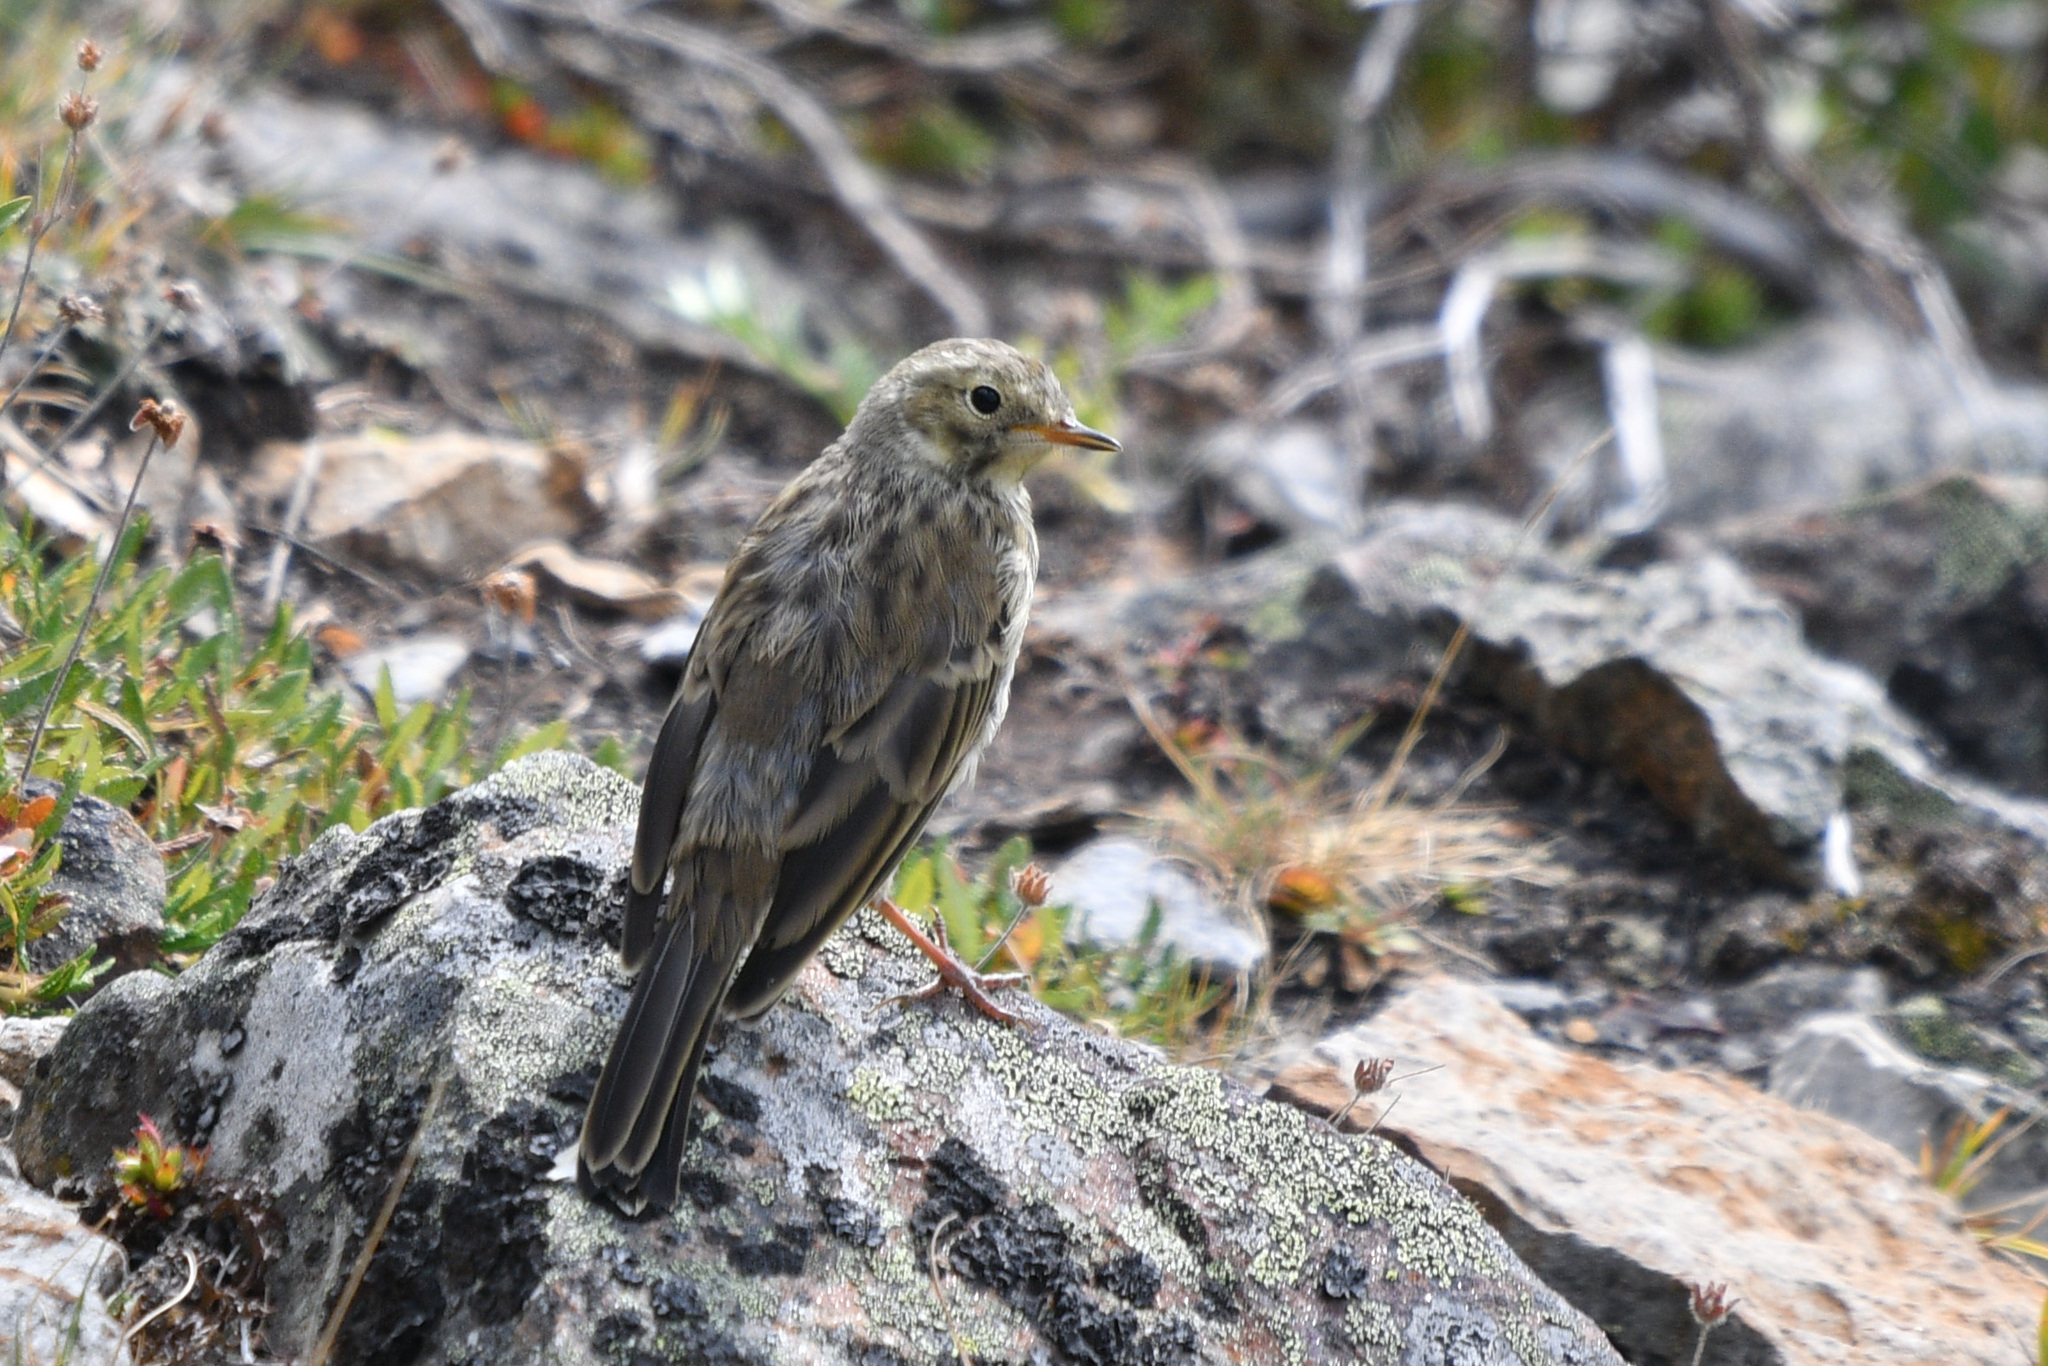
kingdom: Animalia
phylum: Chordata
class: Aves
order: Passeriformes
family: Motacillidae
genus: Anthus
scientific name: Anthus rubescens
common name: Buff-bellied pipit
